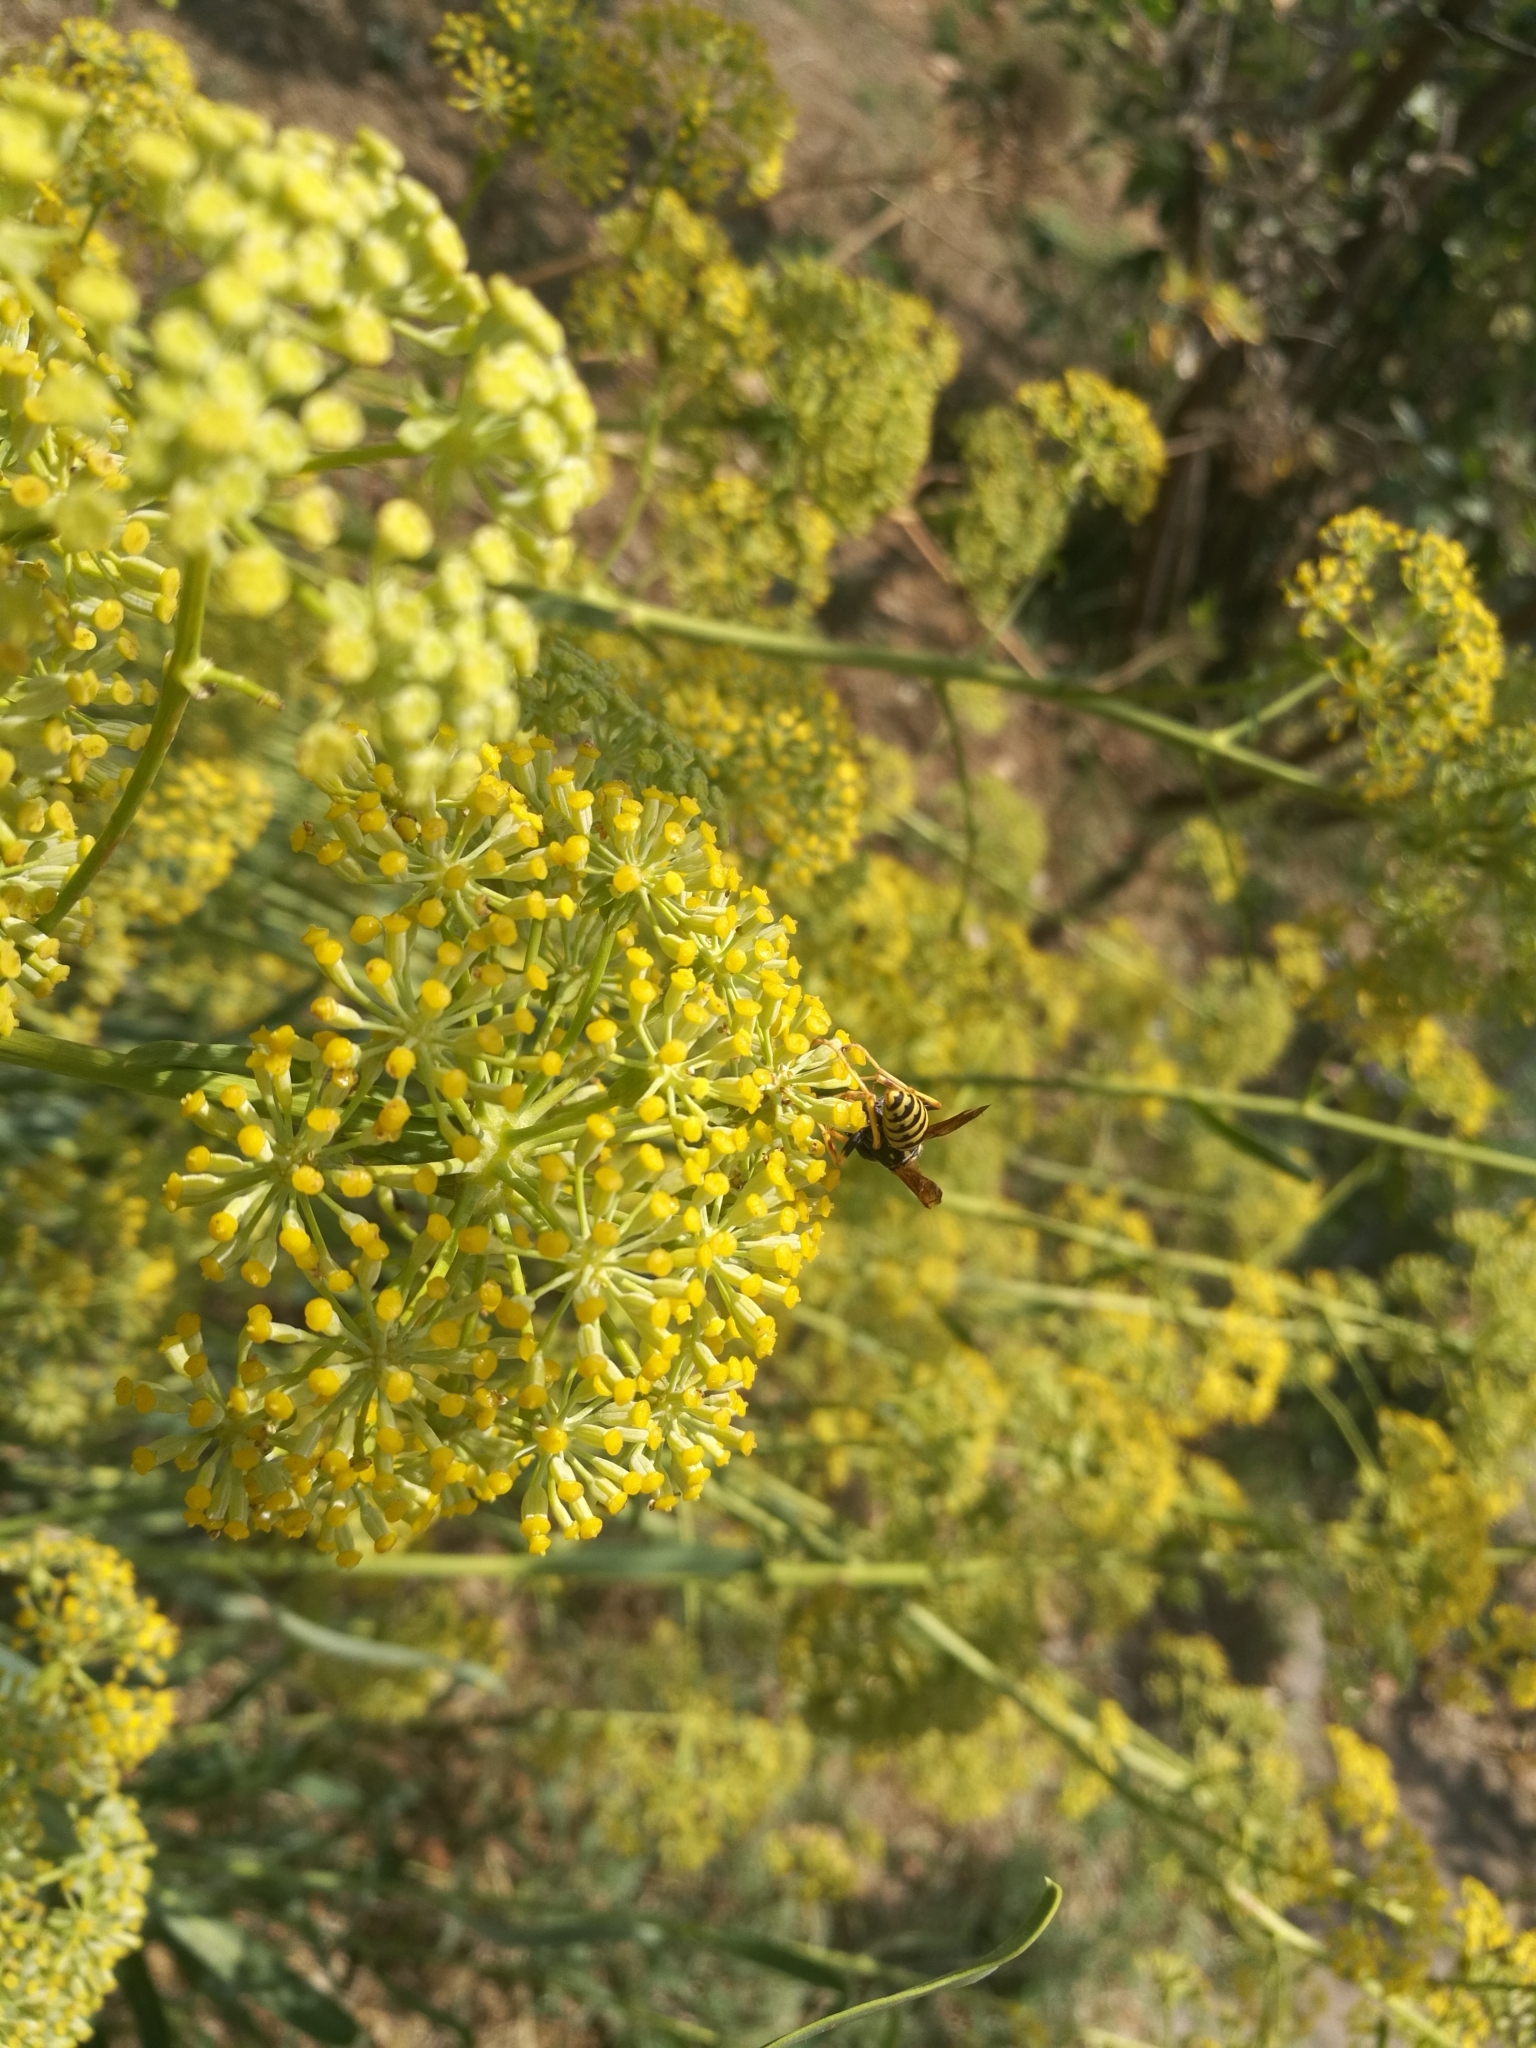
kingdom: Animalia
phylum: Arthropoda
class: Insecta
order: Hymenoptera
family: Eumenidae
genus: Polistes
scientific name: Polistes dominula
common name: Paper wasp
